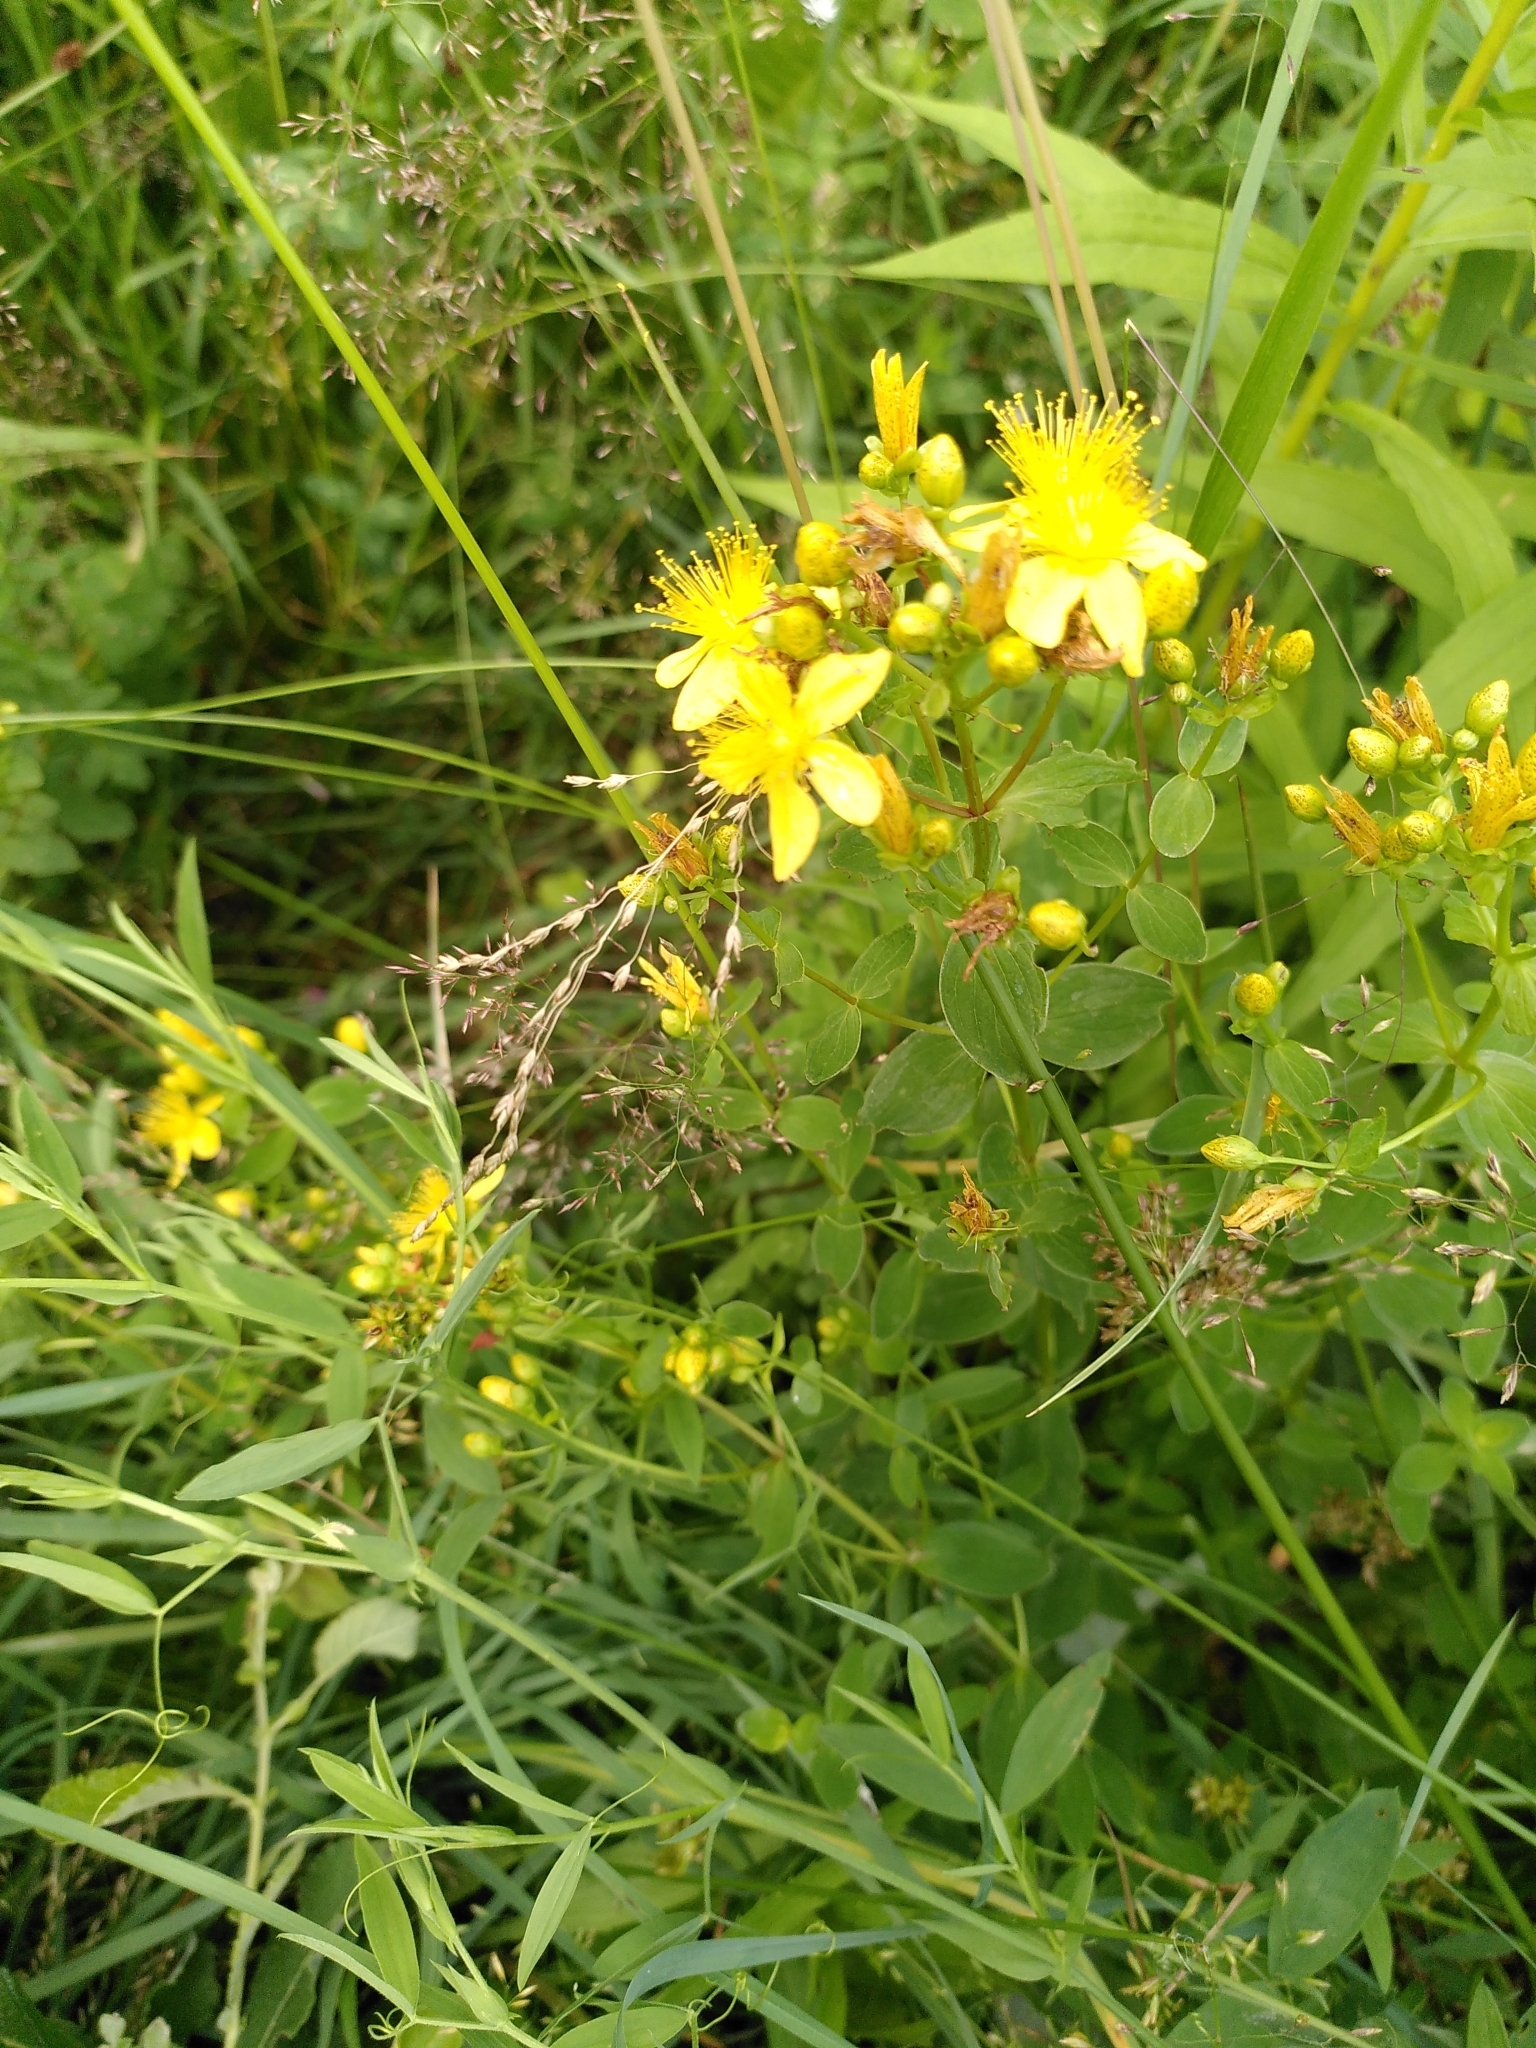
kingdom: Plantae
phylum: Tracheophyta
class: Magnoliopsida
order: Malpighiales
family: Hypericaceae
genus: Hypericum
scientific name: Hypericum maculatum
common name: Imperforate st. john's-wort
